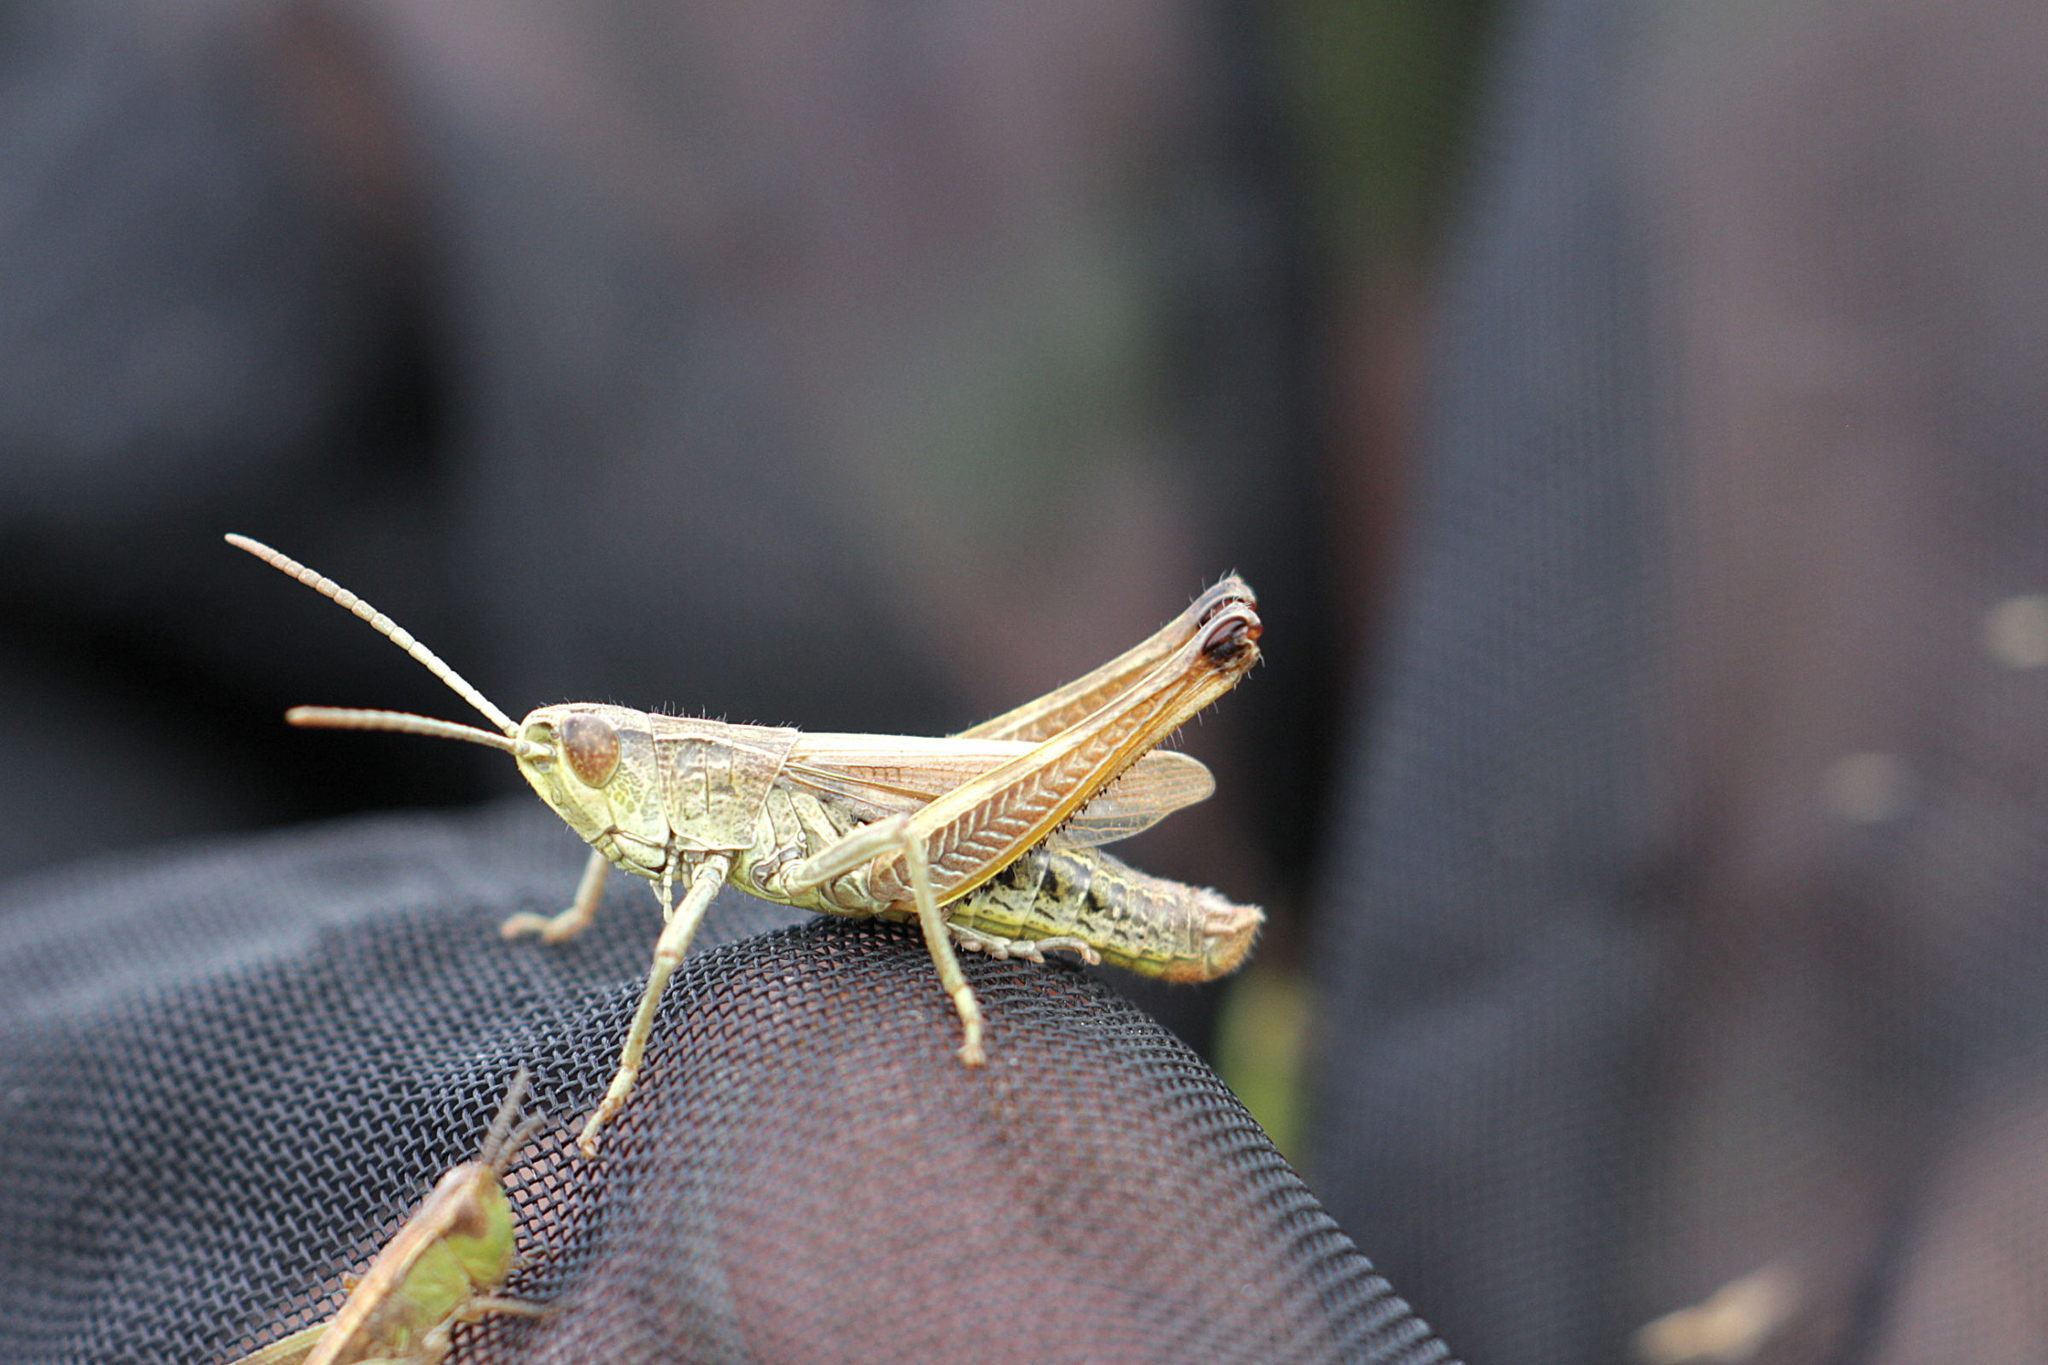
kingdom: Animalia
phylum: Arthropoda
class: Insecta
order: Orthoptera
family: Acrididae
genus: Pseudochorthippus
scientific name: Pseudochorthippus parallelus
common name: Meadow grasshopper
